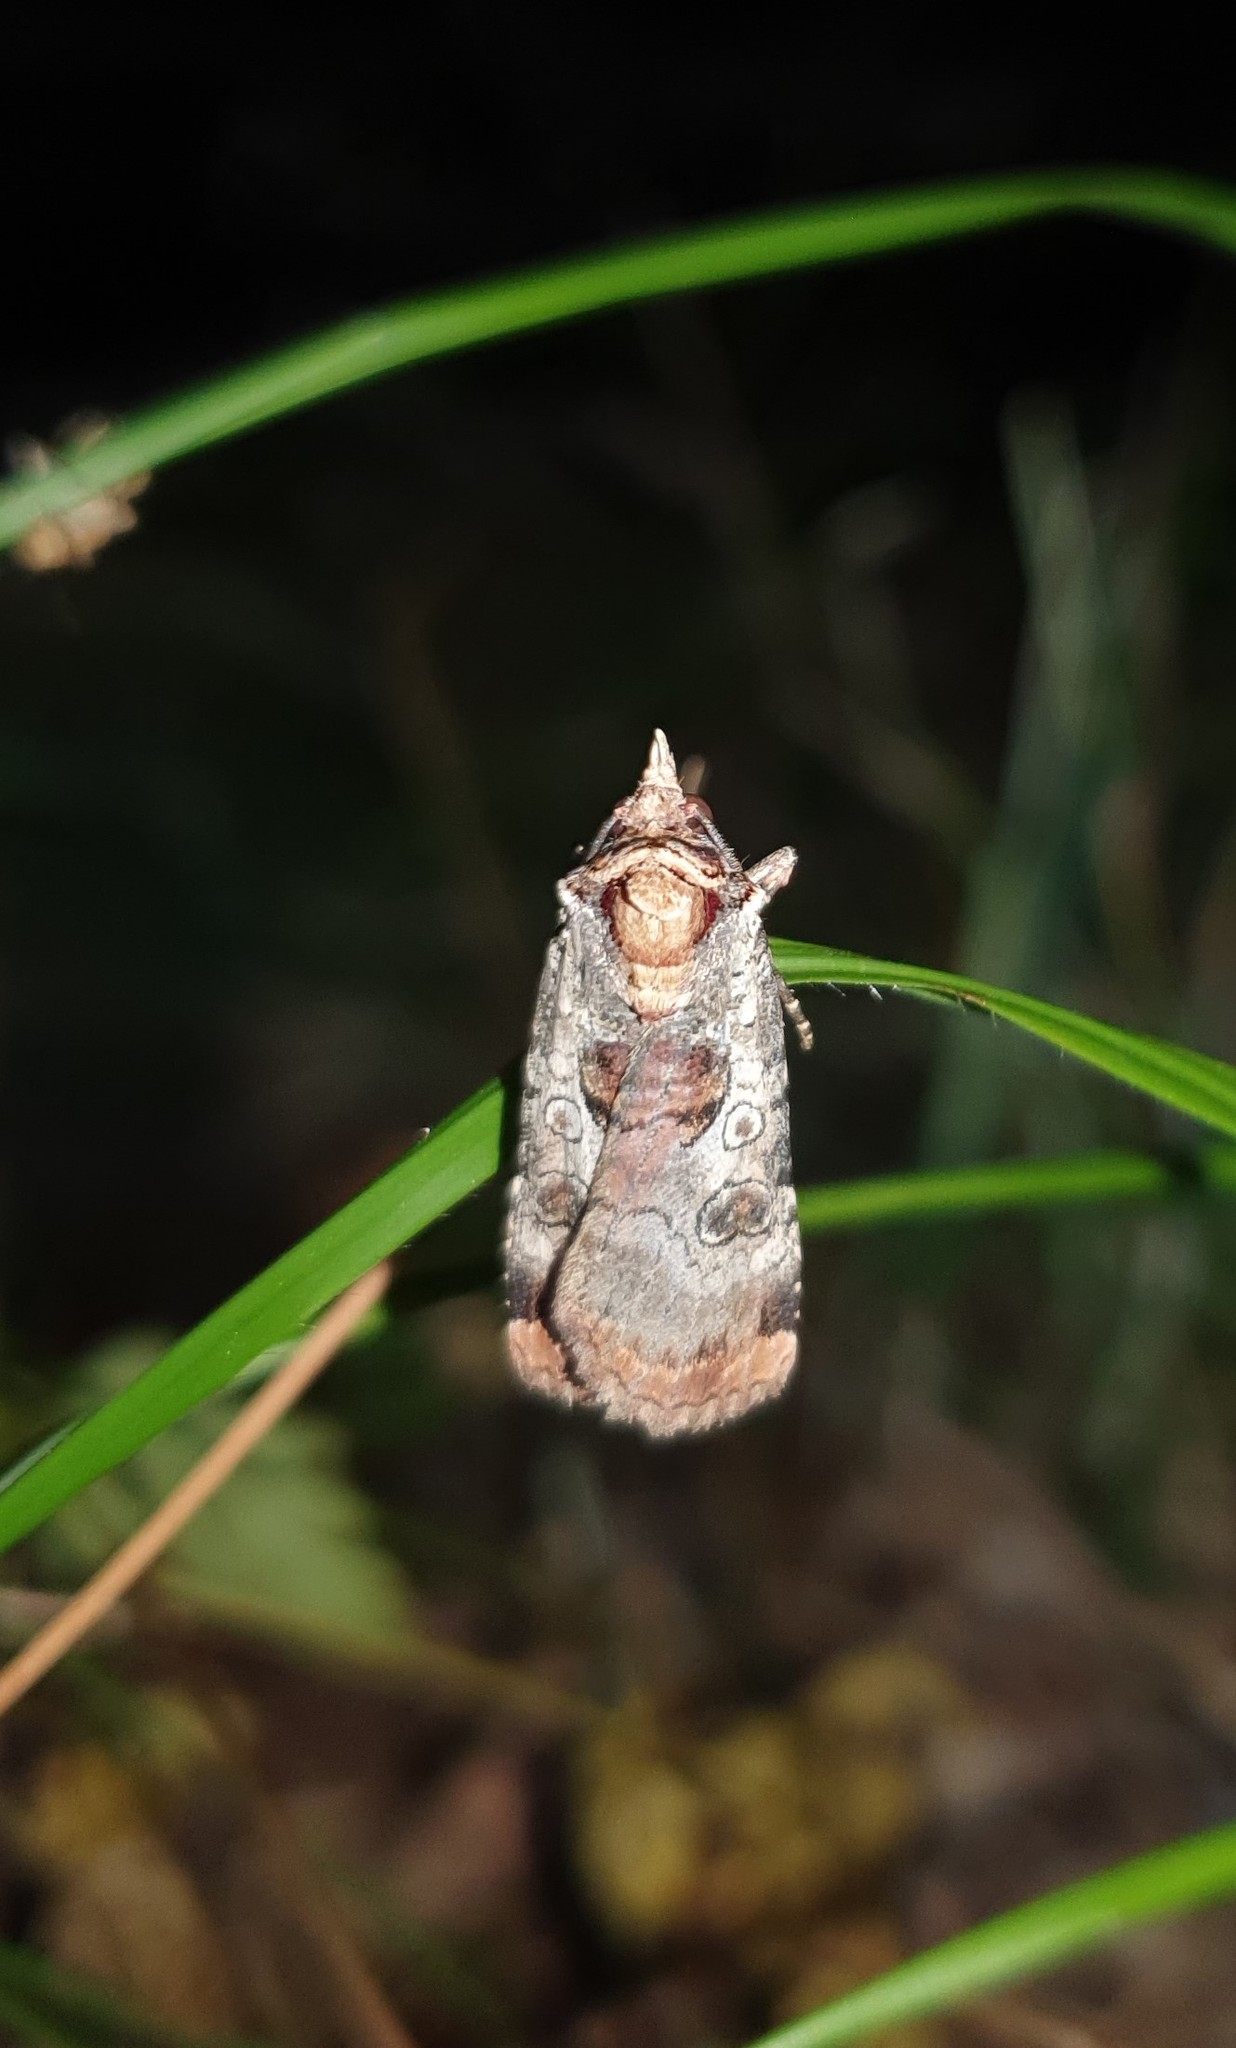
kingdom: Animalia
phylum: Arthropoda
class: Insecta
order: Lepidoptera
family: Noctuidae
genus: Epilecta
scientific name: Epilecta linogrisea
